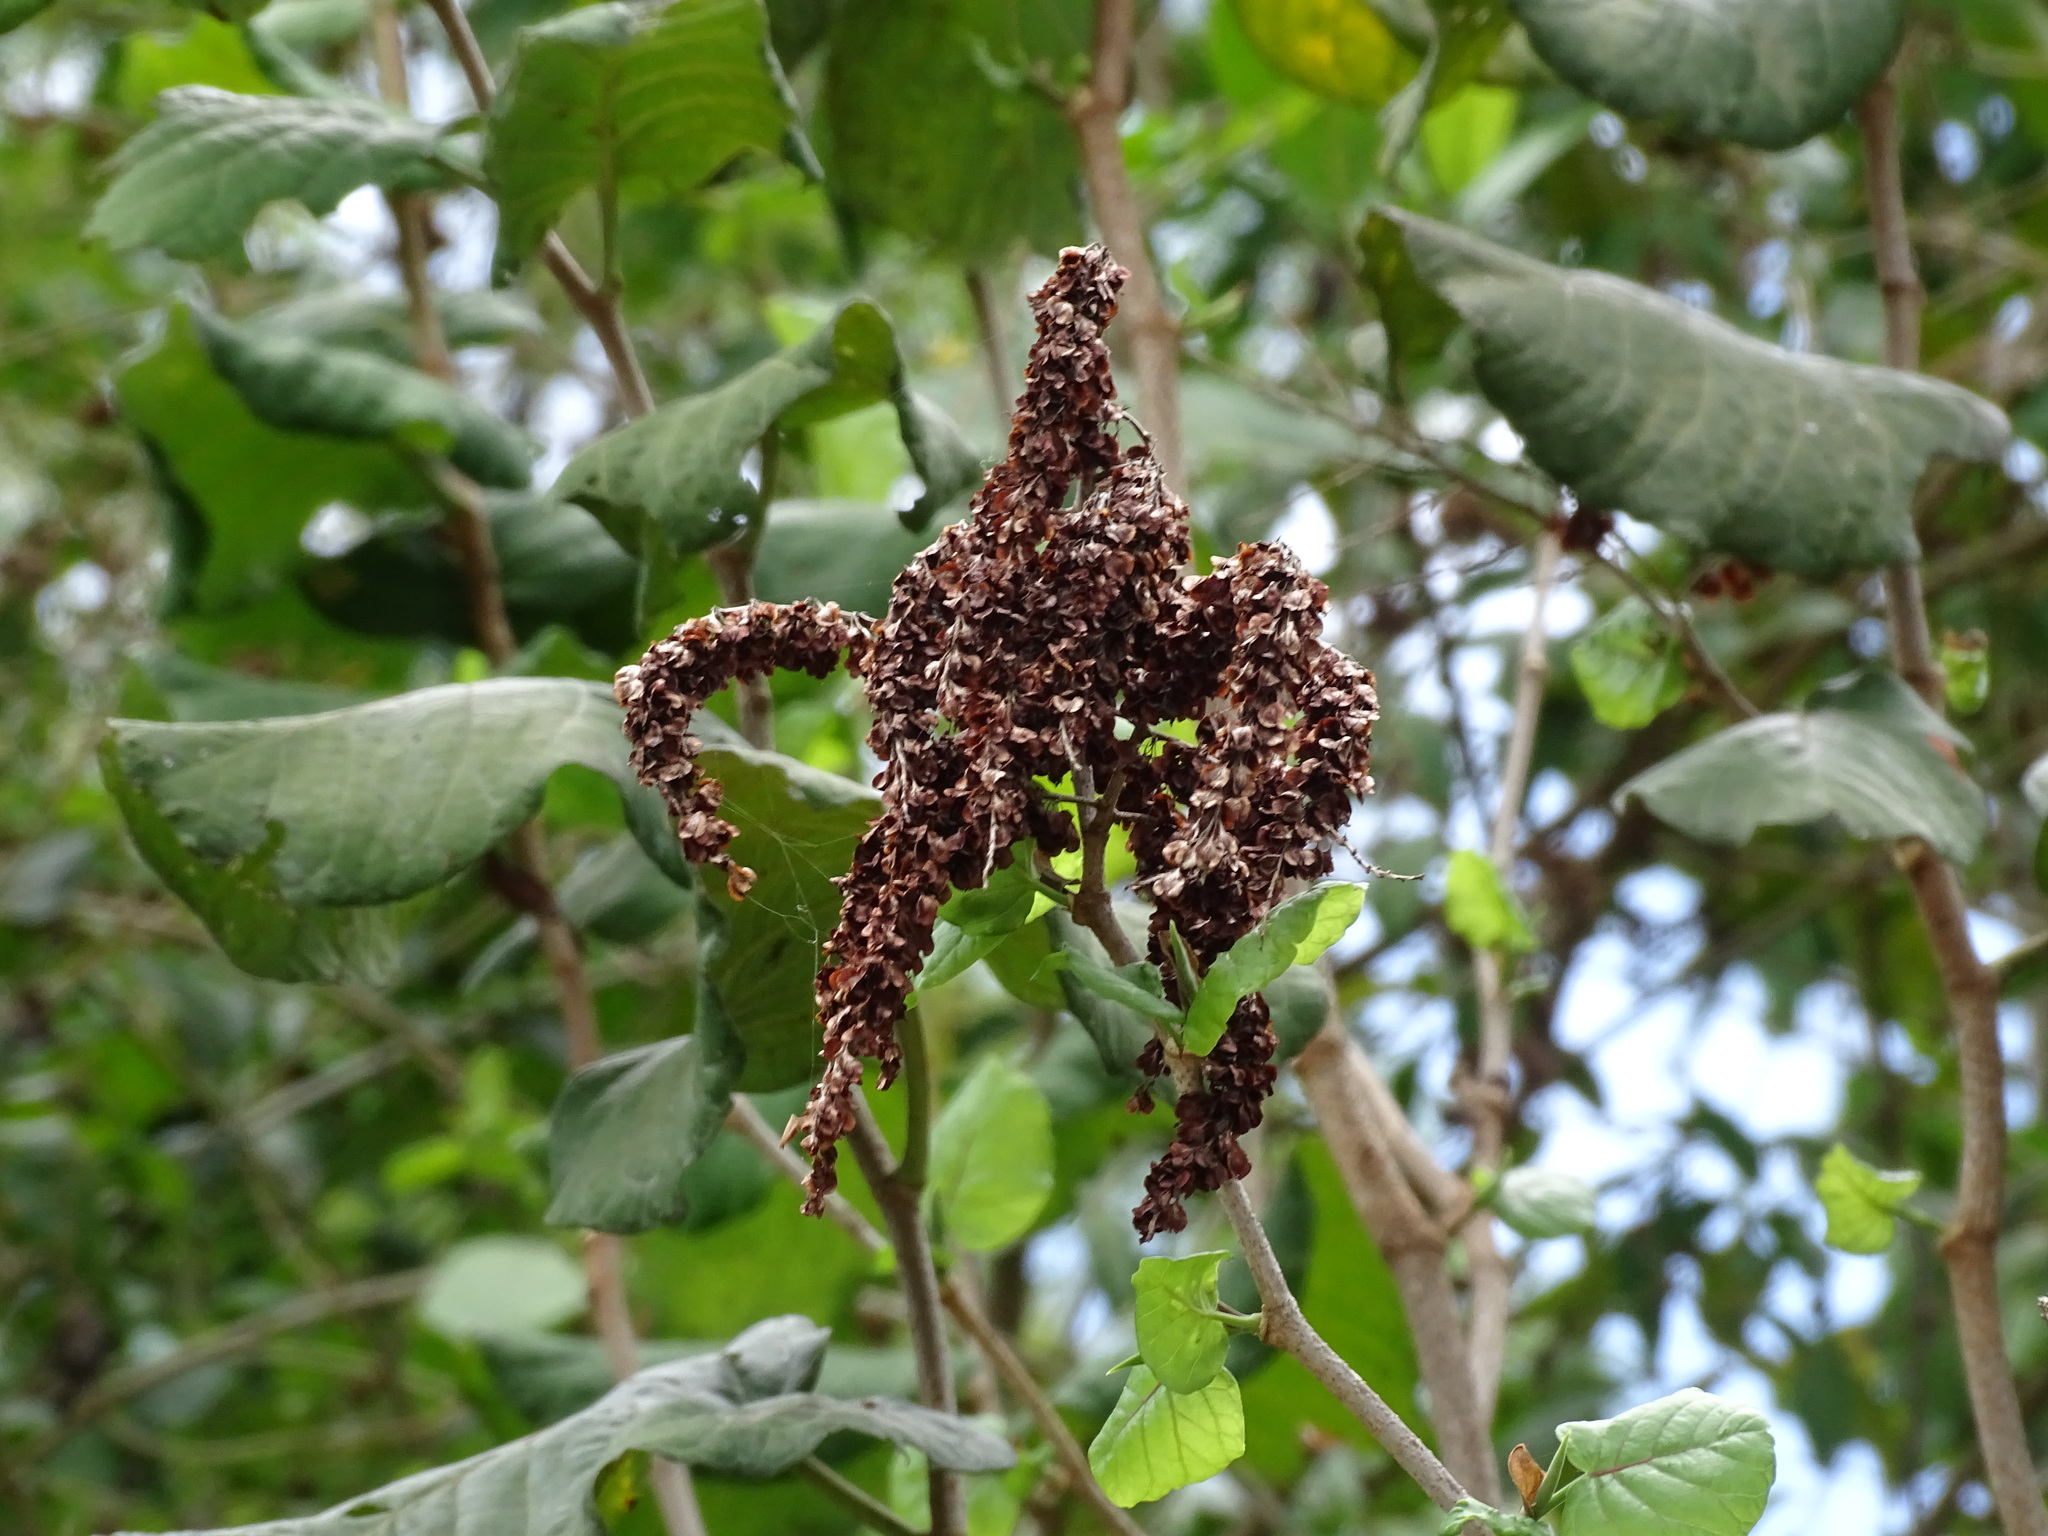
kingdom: Plantae
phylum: Tracheophyta
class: Magnoliopsida
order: Caryophyllales
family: Polygonaceae
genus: Neomillspaughia
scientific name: Neomillspaughia emarginata
